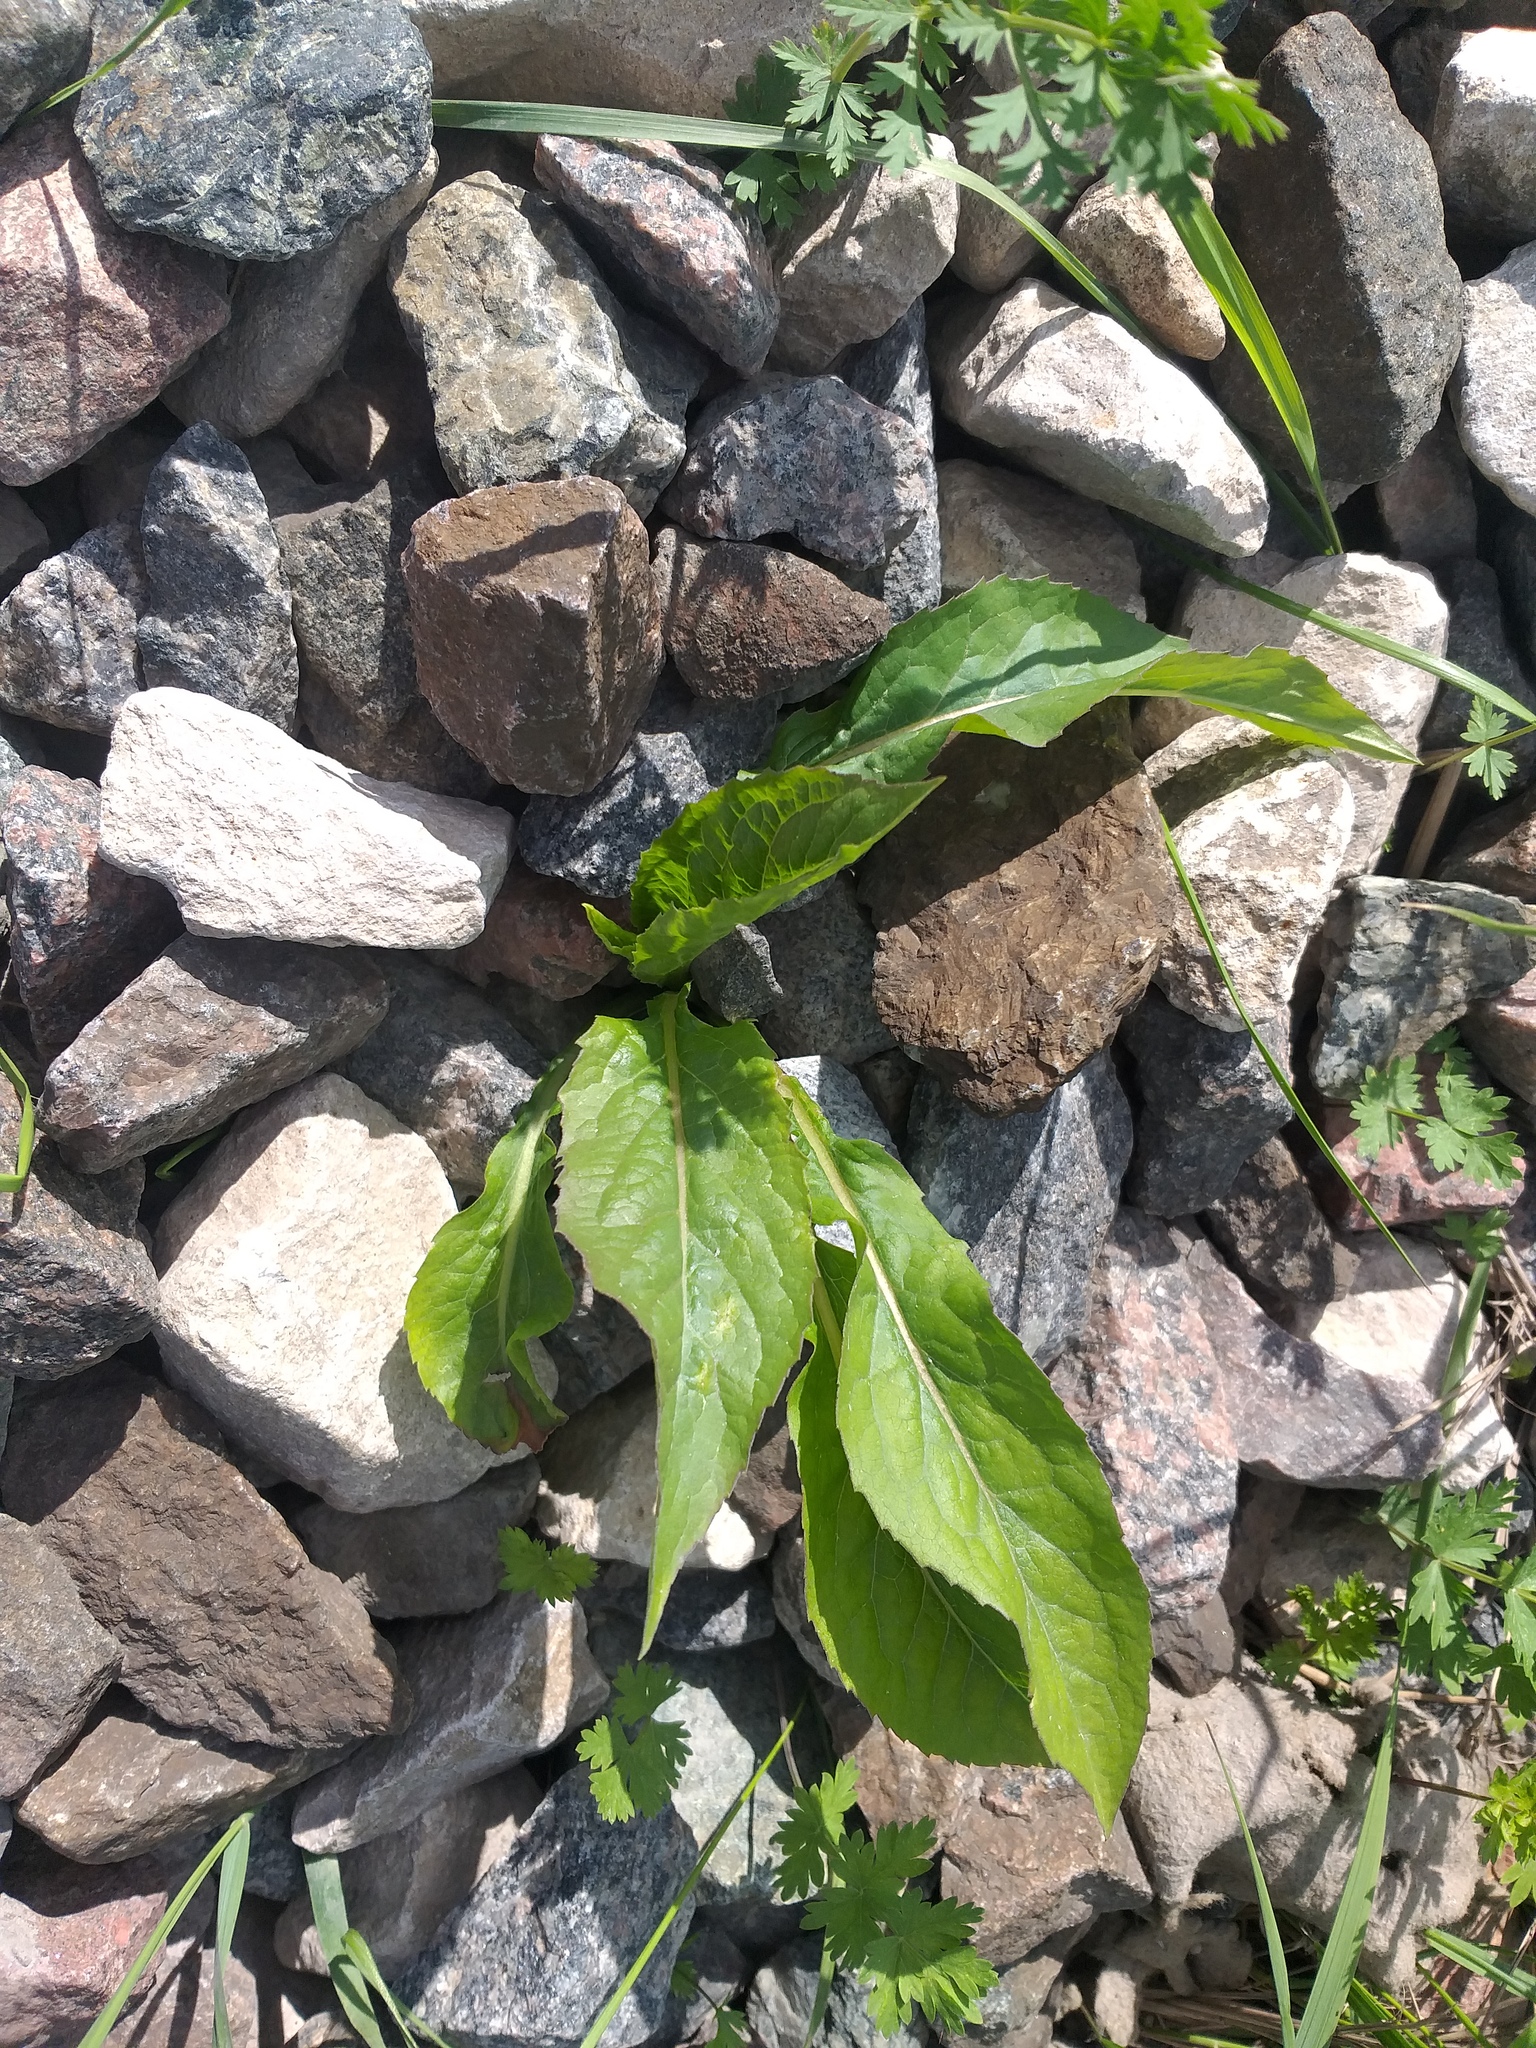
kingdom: Plantae
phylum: Tracheophyta
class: Magnoliopsida
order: Asterales
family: Asteraceae
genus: Solidago
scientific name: Solidago virgaurea
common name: Goldenrod
